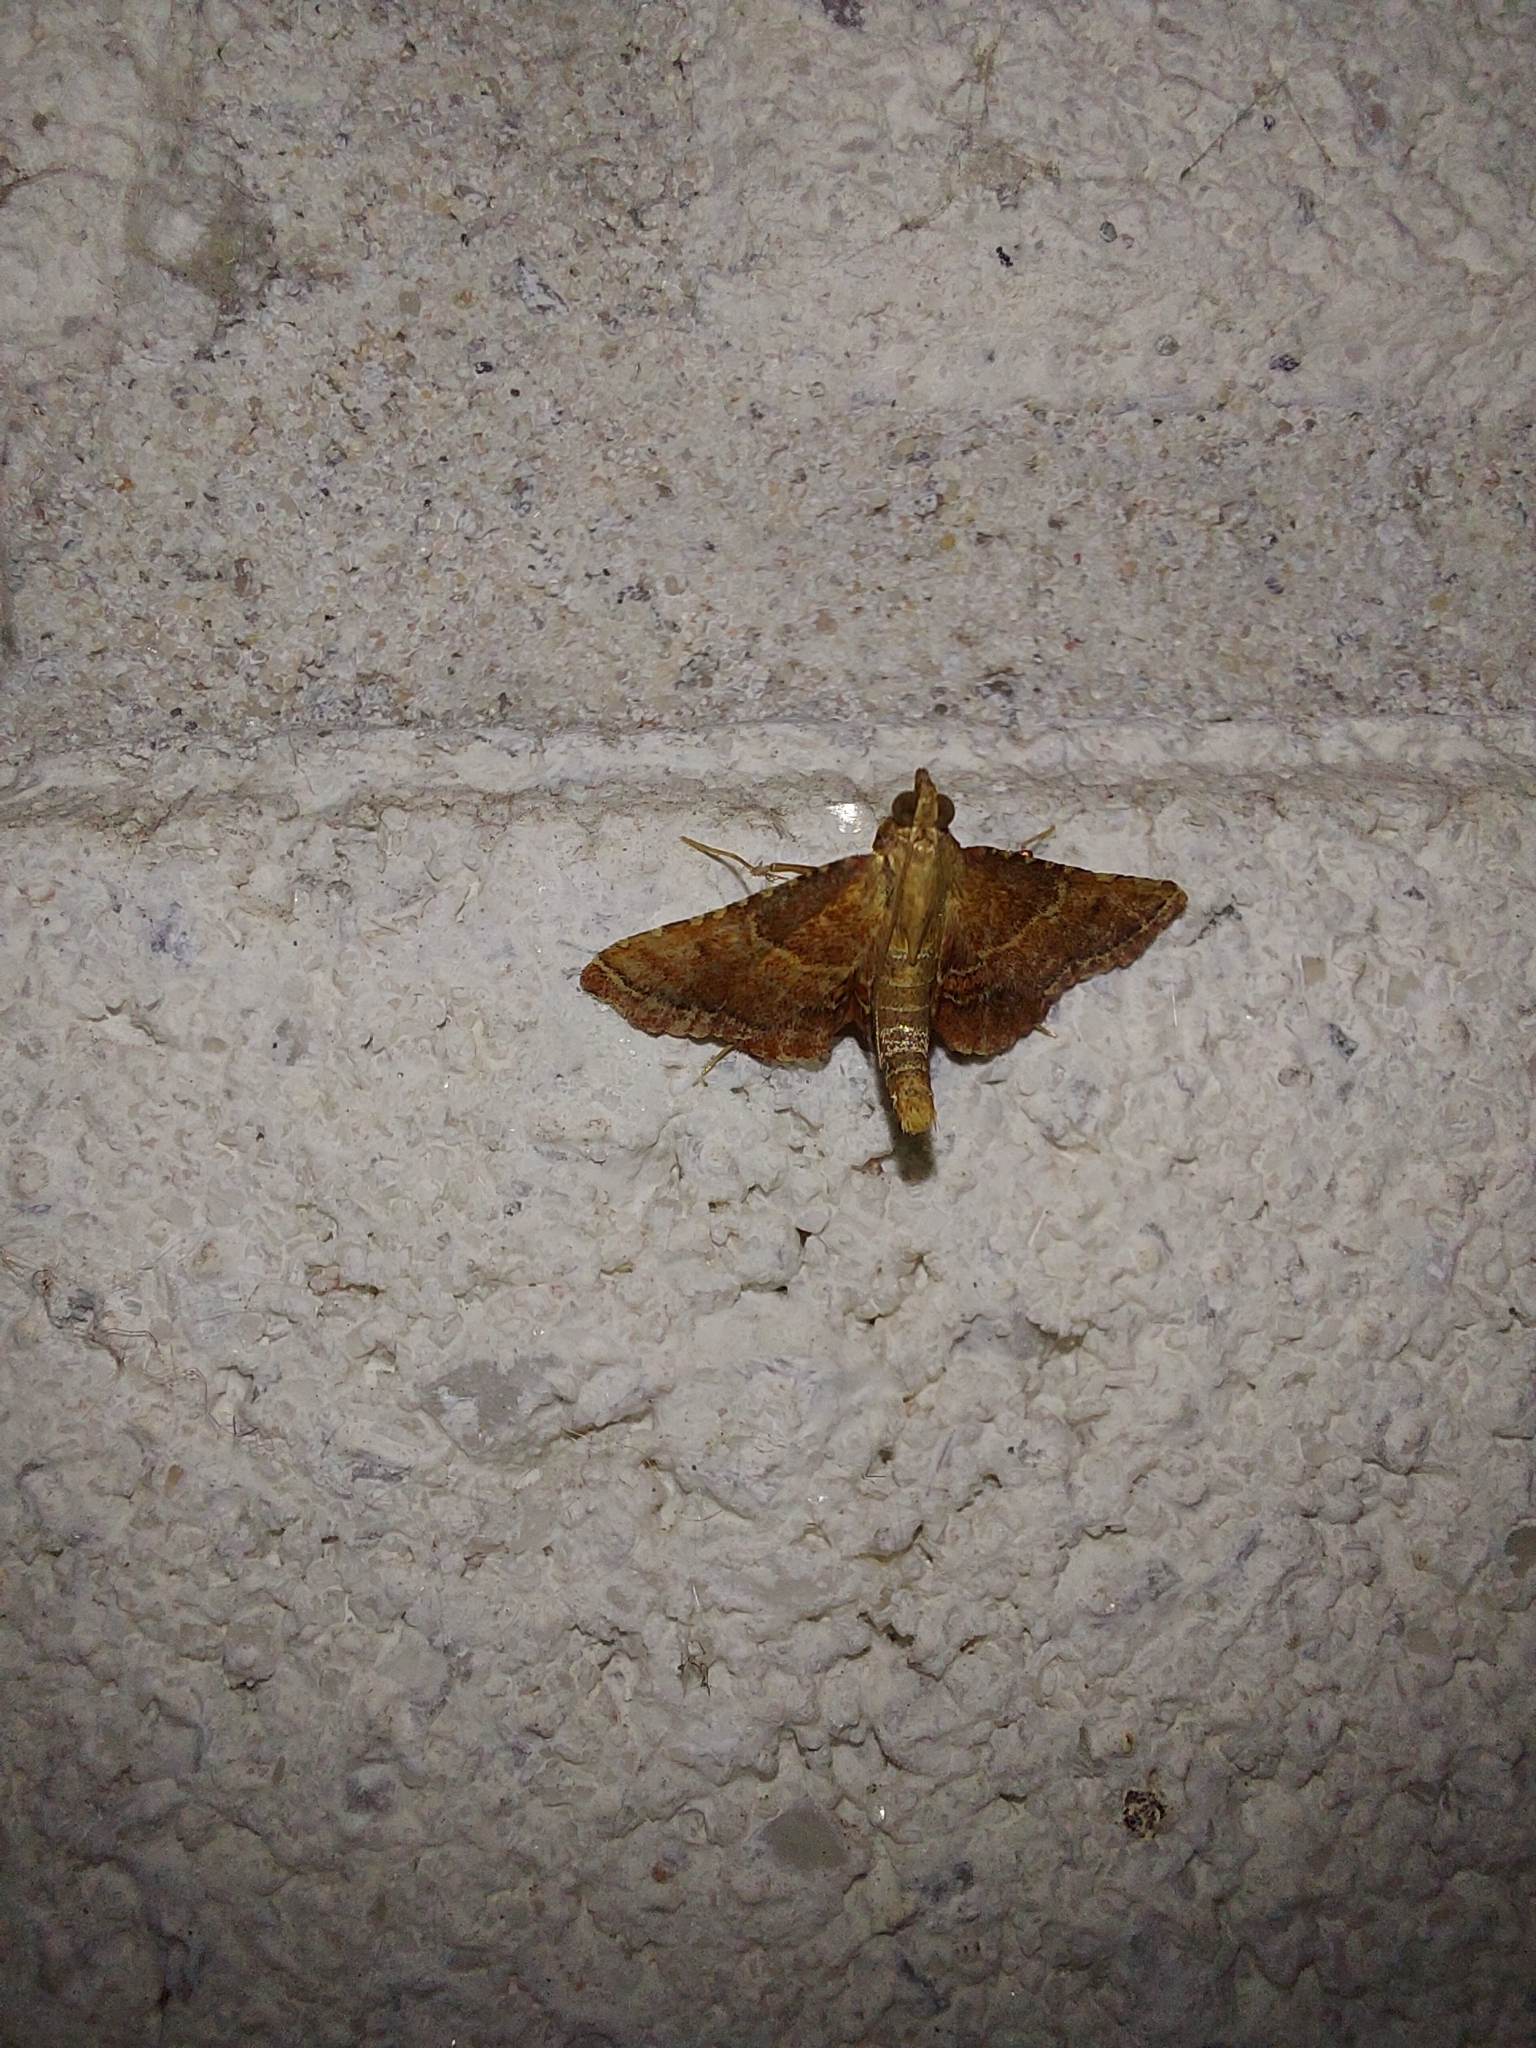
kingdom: Animalia
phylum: Arthropoda
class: Insecta
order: Lepidoptera
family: Pyralidae
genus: Endotricha
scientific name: Endotricha flammealis
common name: Rosy tabby
